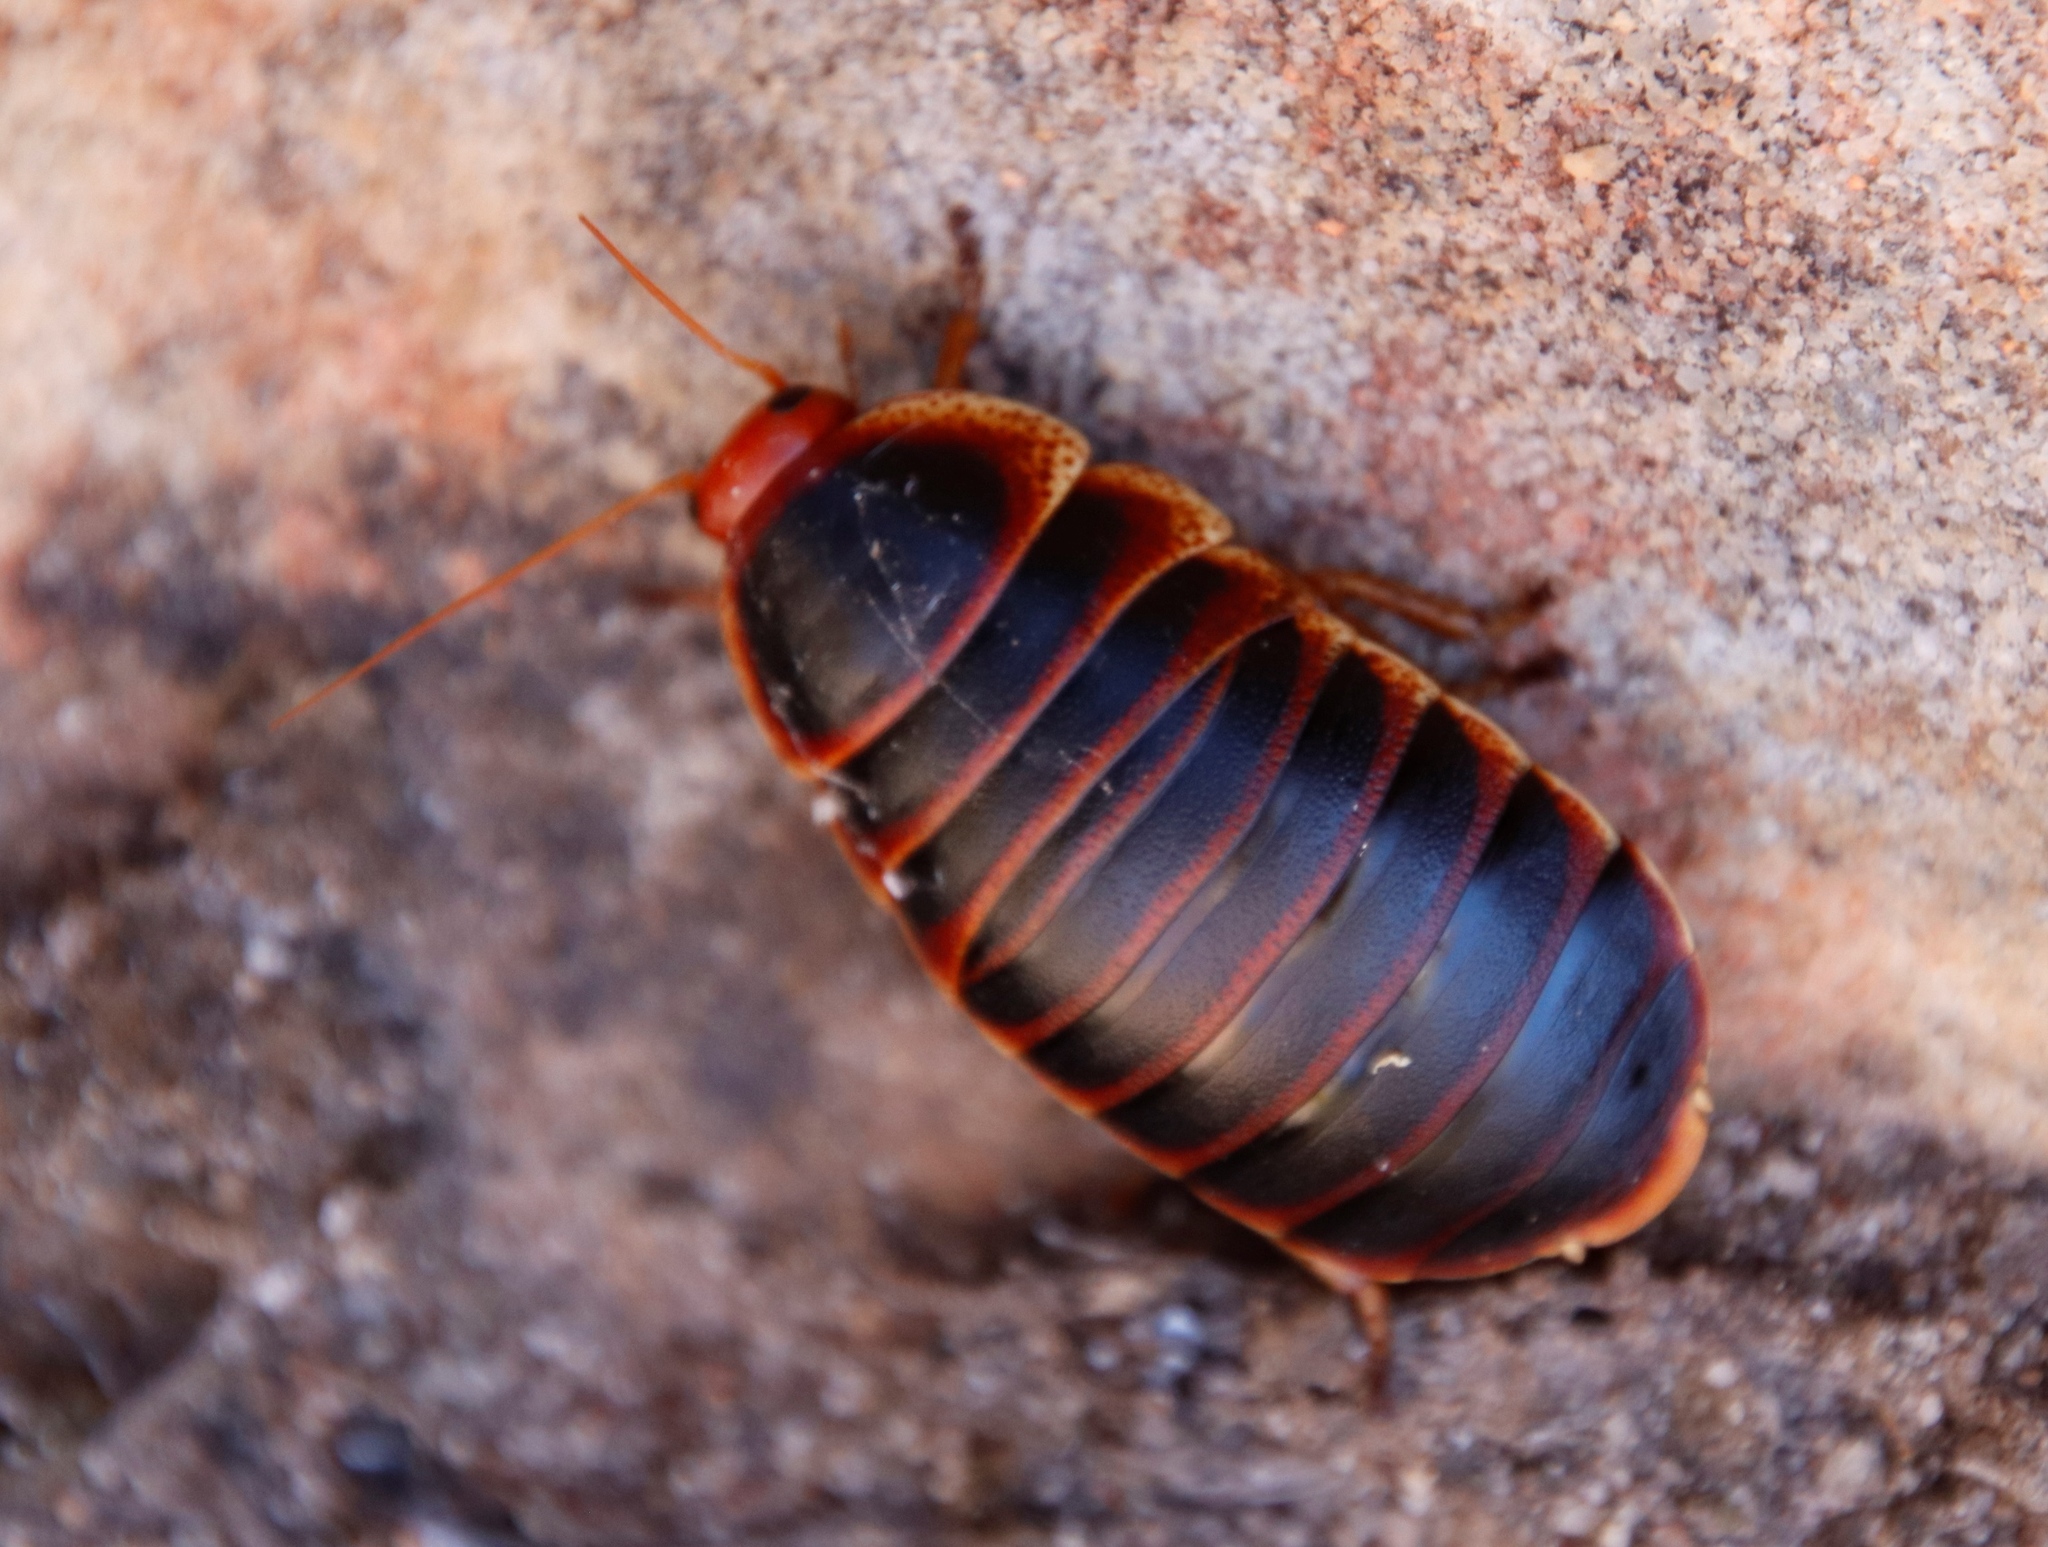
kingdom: Animalia
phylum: Arthropoda
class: Insecta
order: Blattodea
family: Blaberidae
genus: Aptera
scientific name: Aptera fusca
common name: Cape mountain cockroach
